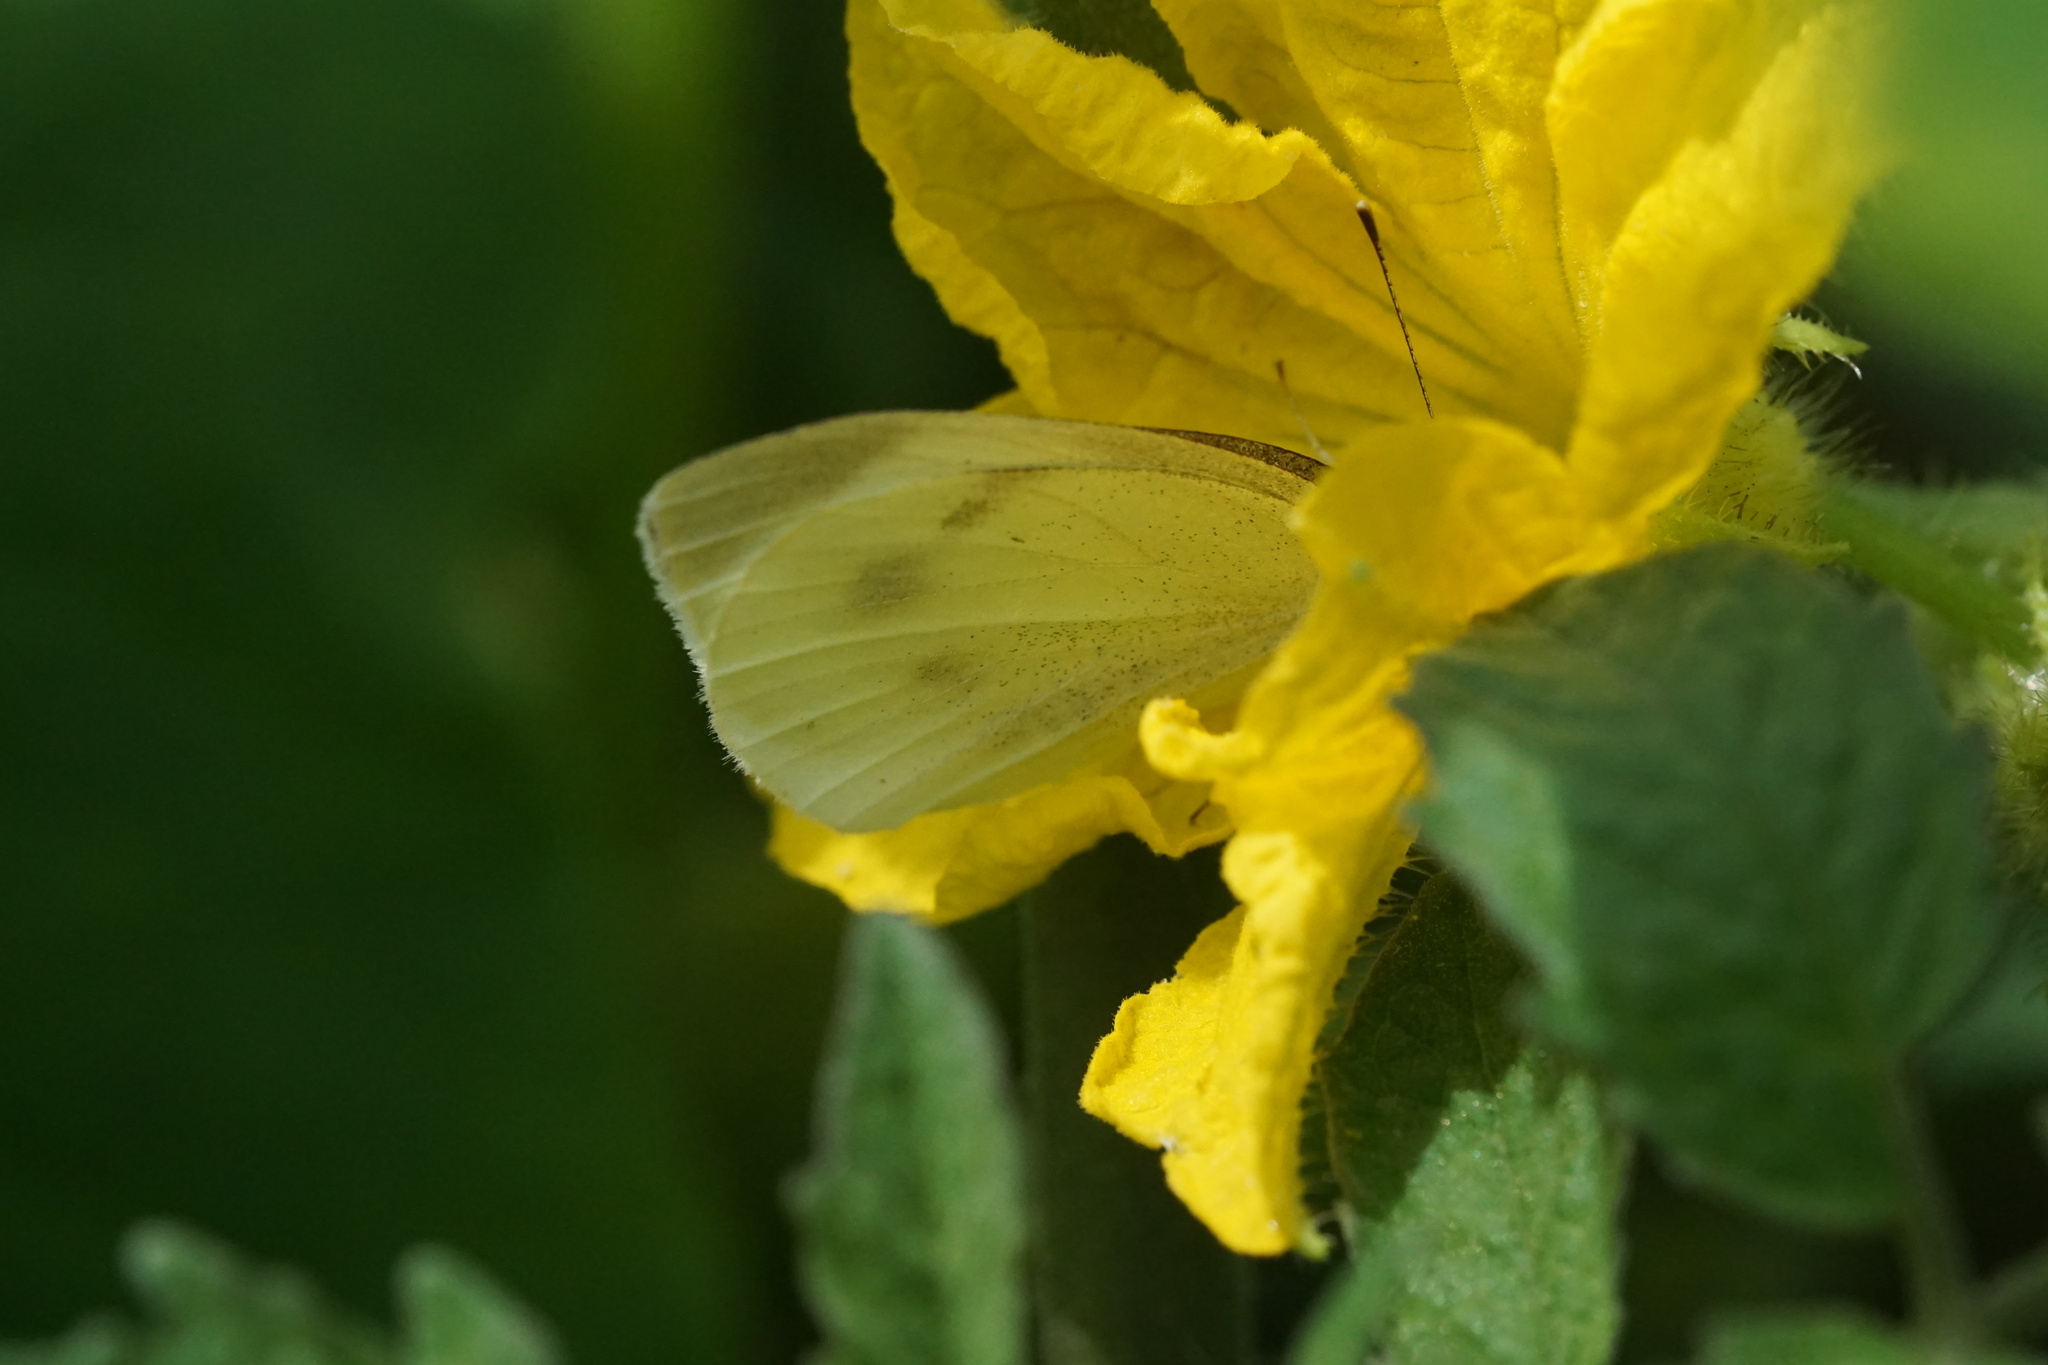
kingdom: Animalia
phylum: Arthropoda
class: Insecta
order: Lepidoptera
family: Pieridae
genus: Pieris
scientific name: Pieris rapae
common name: Small white
